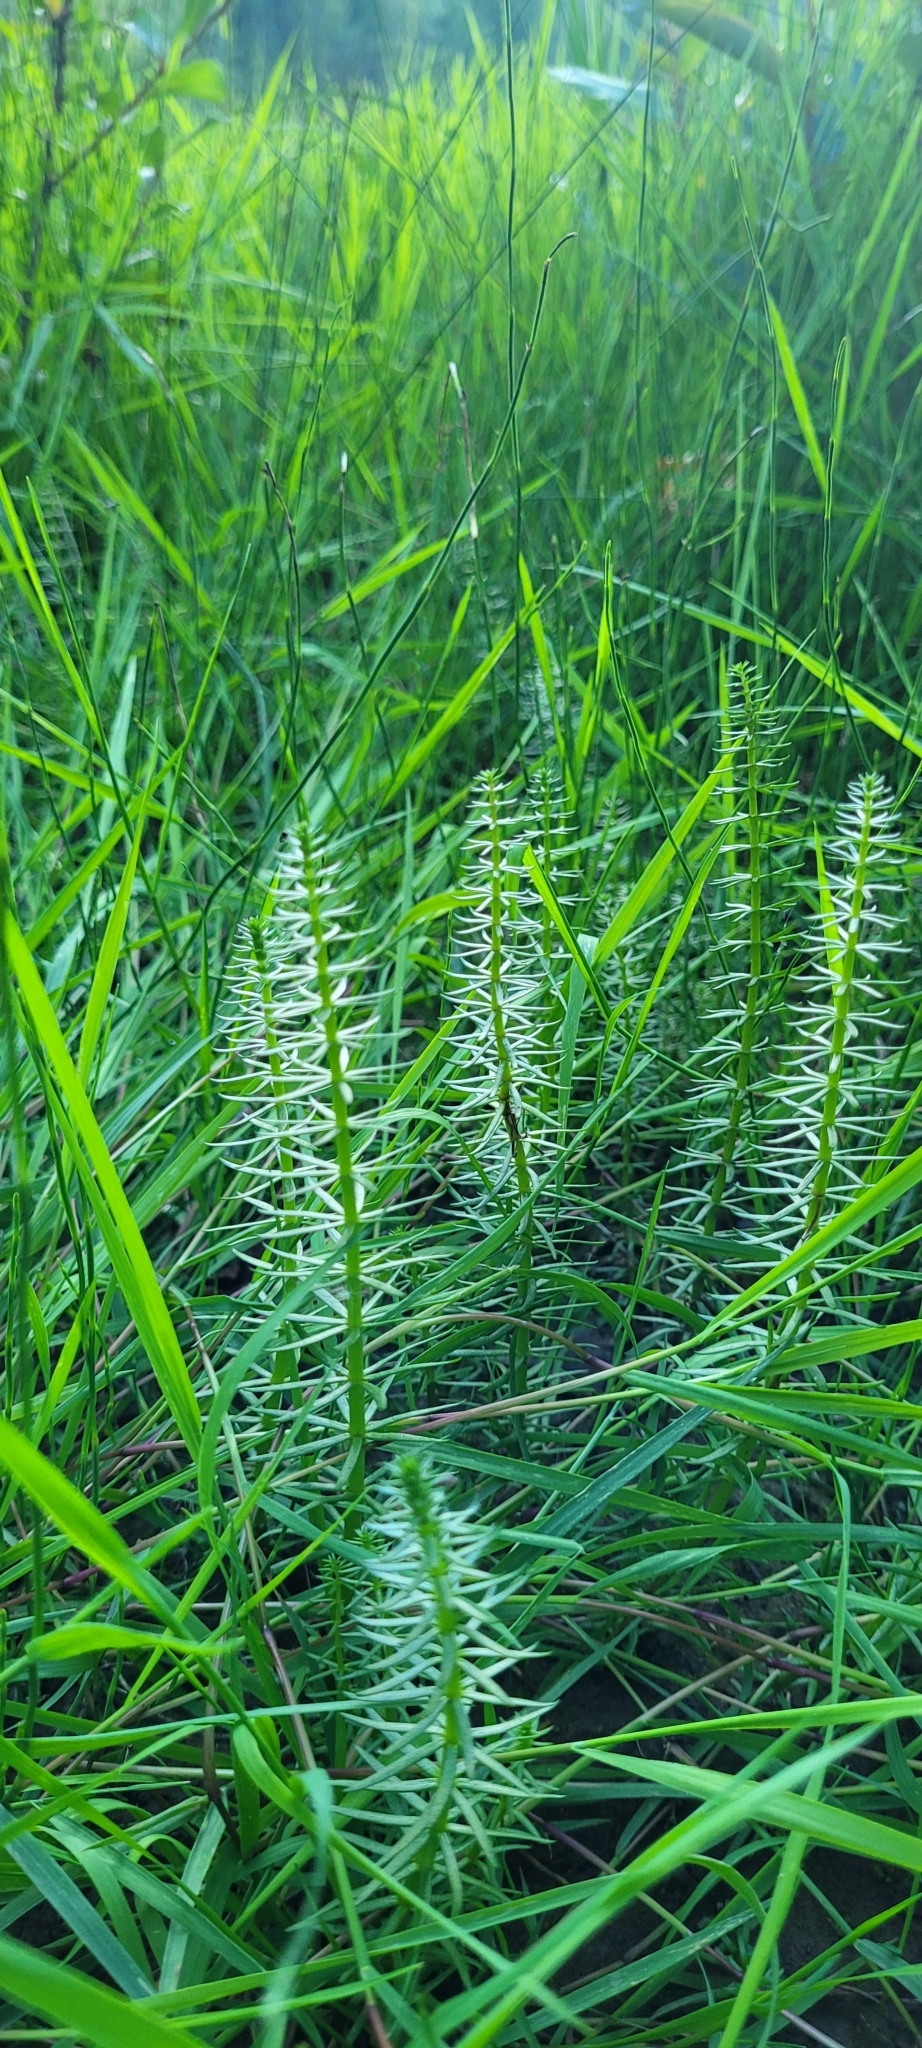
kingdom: Plantae
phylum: Tracheophyta
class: Magnoliopsida
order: Lamiales
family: Plantaginaceae
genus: Hippuris
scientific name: Hippuris vulgaris
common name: Mare's-tail
